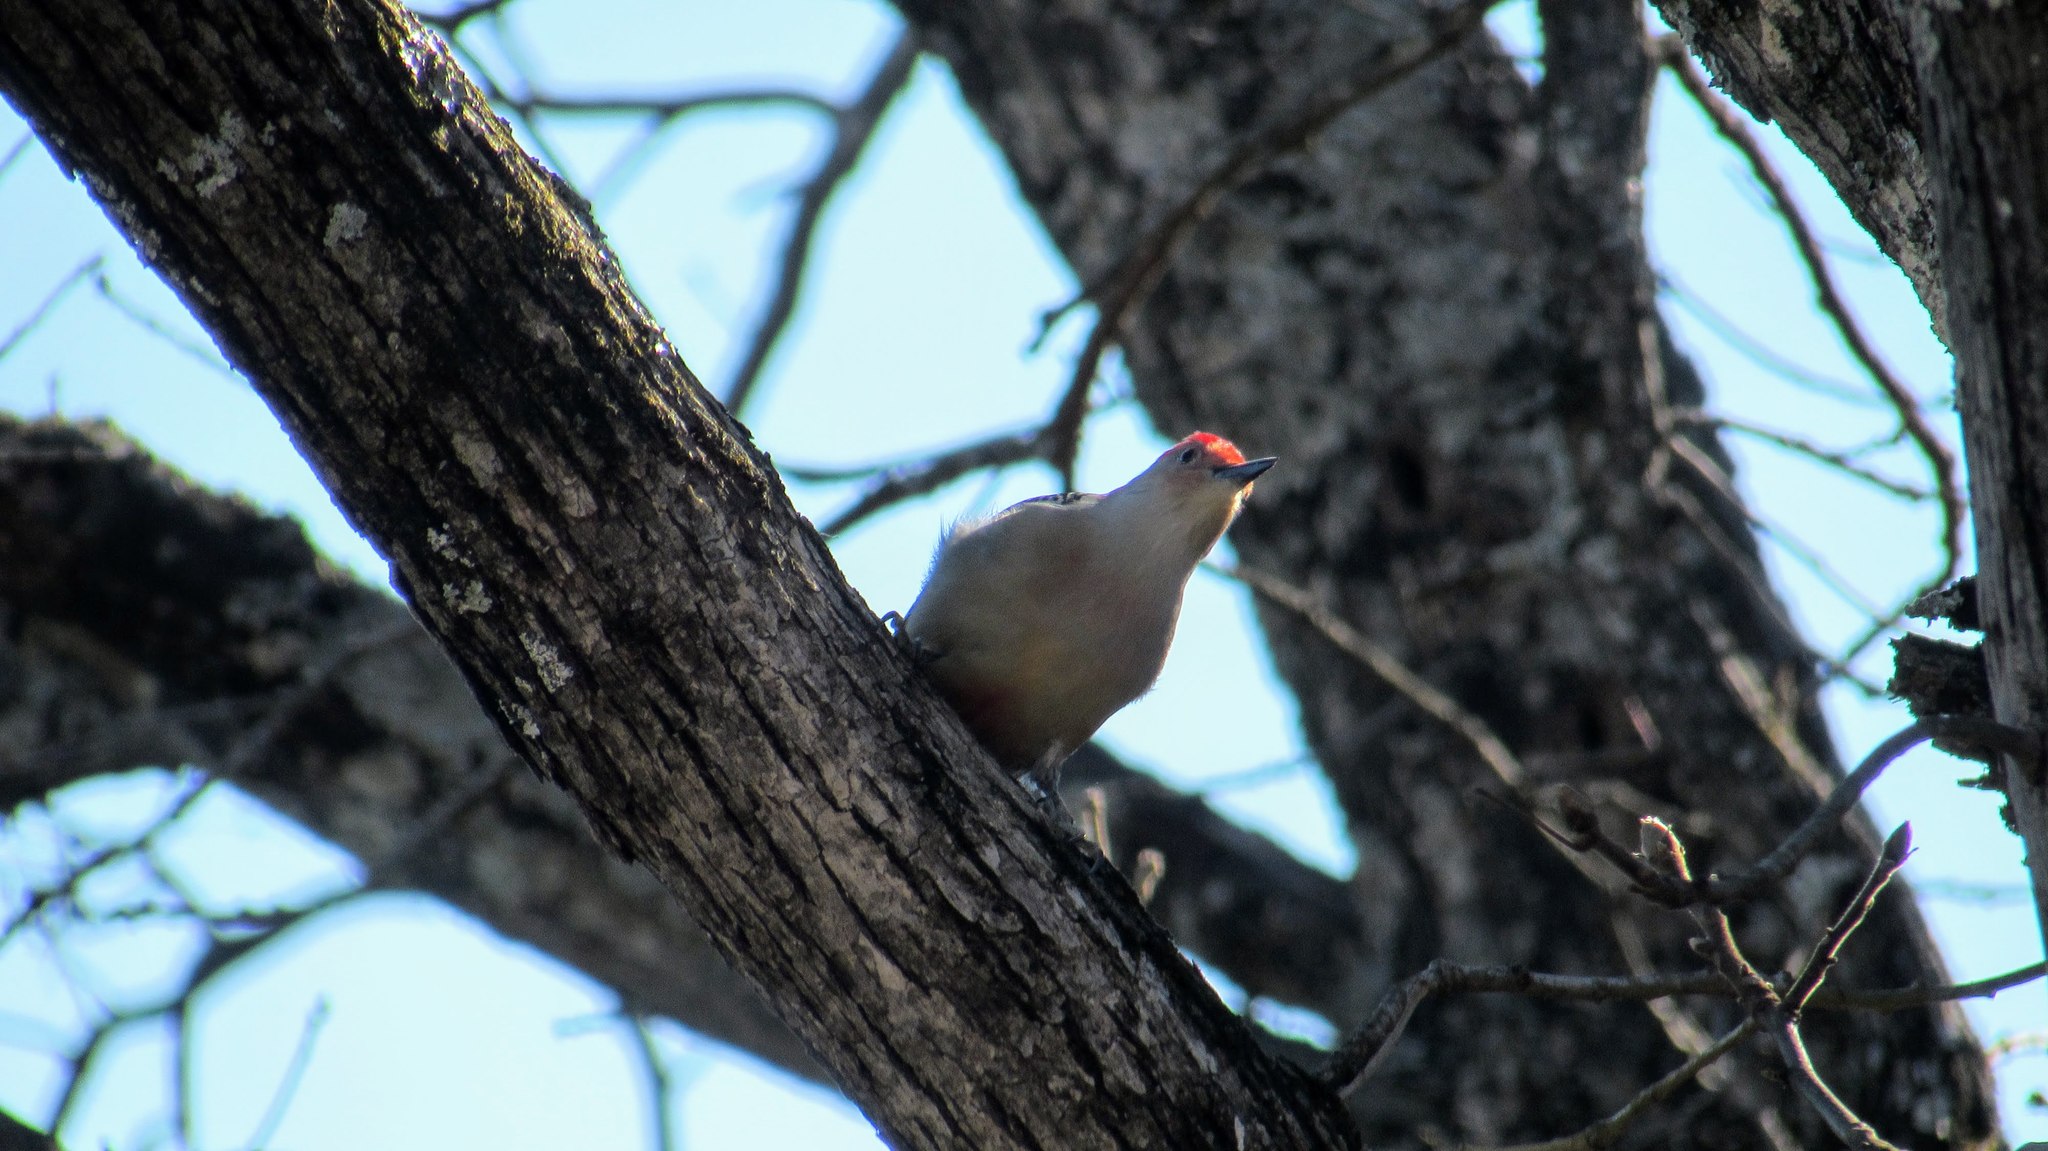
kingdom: Animalia
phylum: Chordata
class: Aves
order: Piciformes
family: Picidae
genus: Melanerpes
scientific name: Melanerpes carolinus
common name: Red-bellied woodpecker
